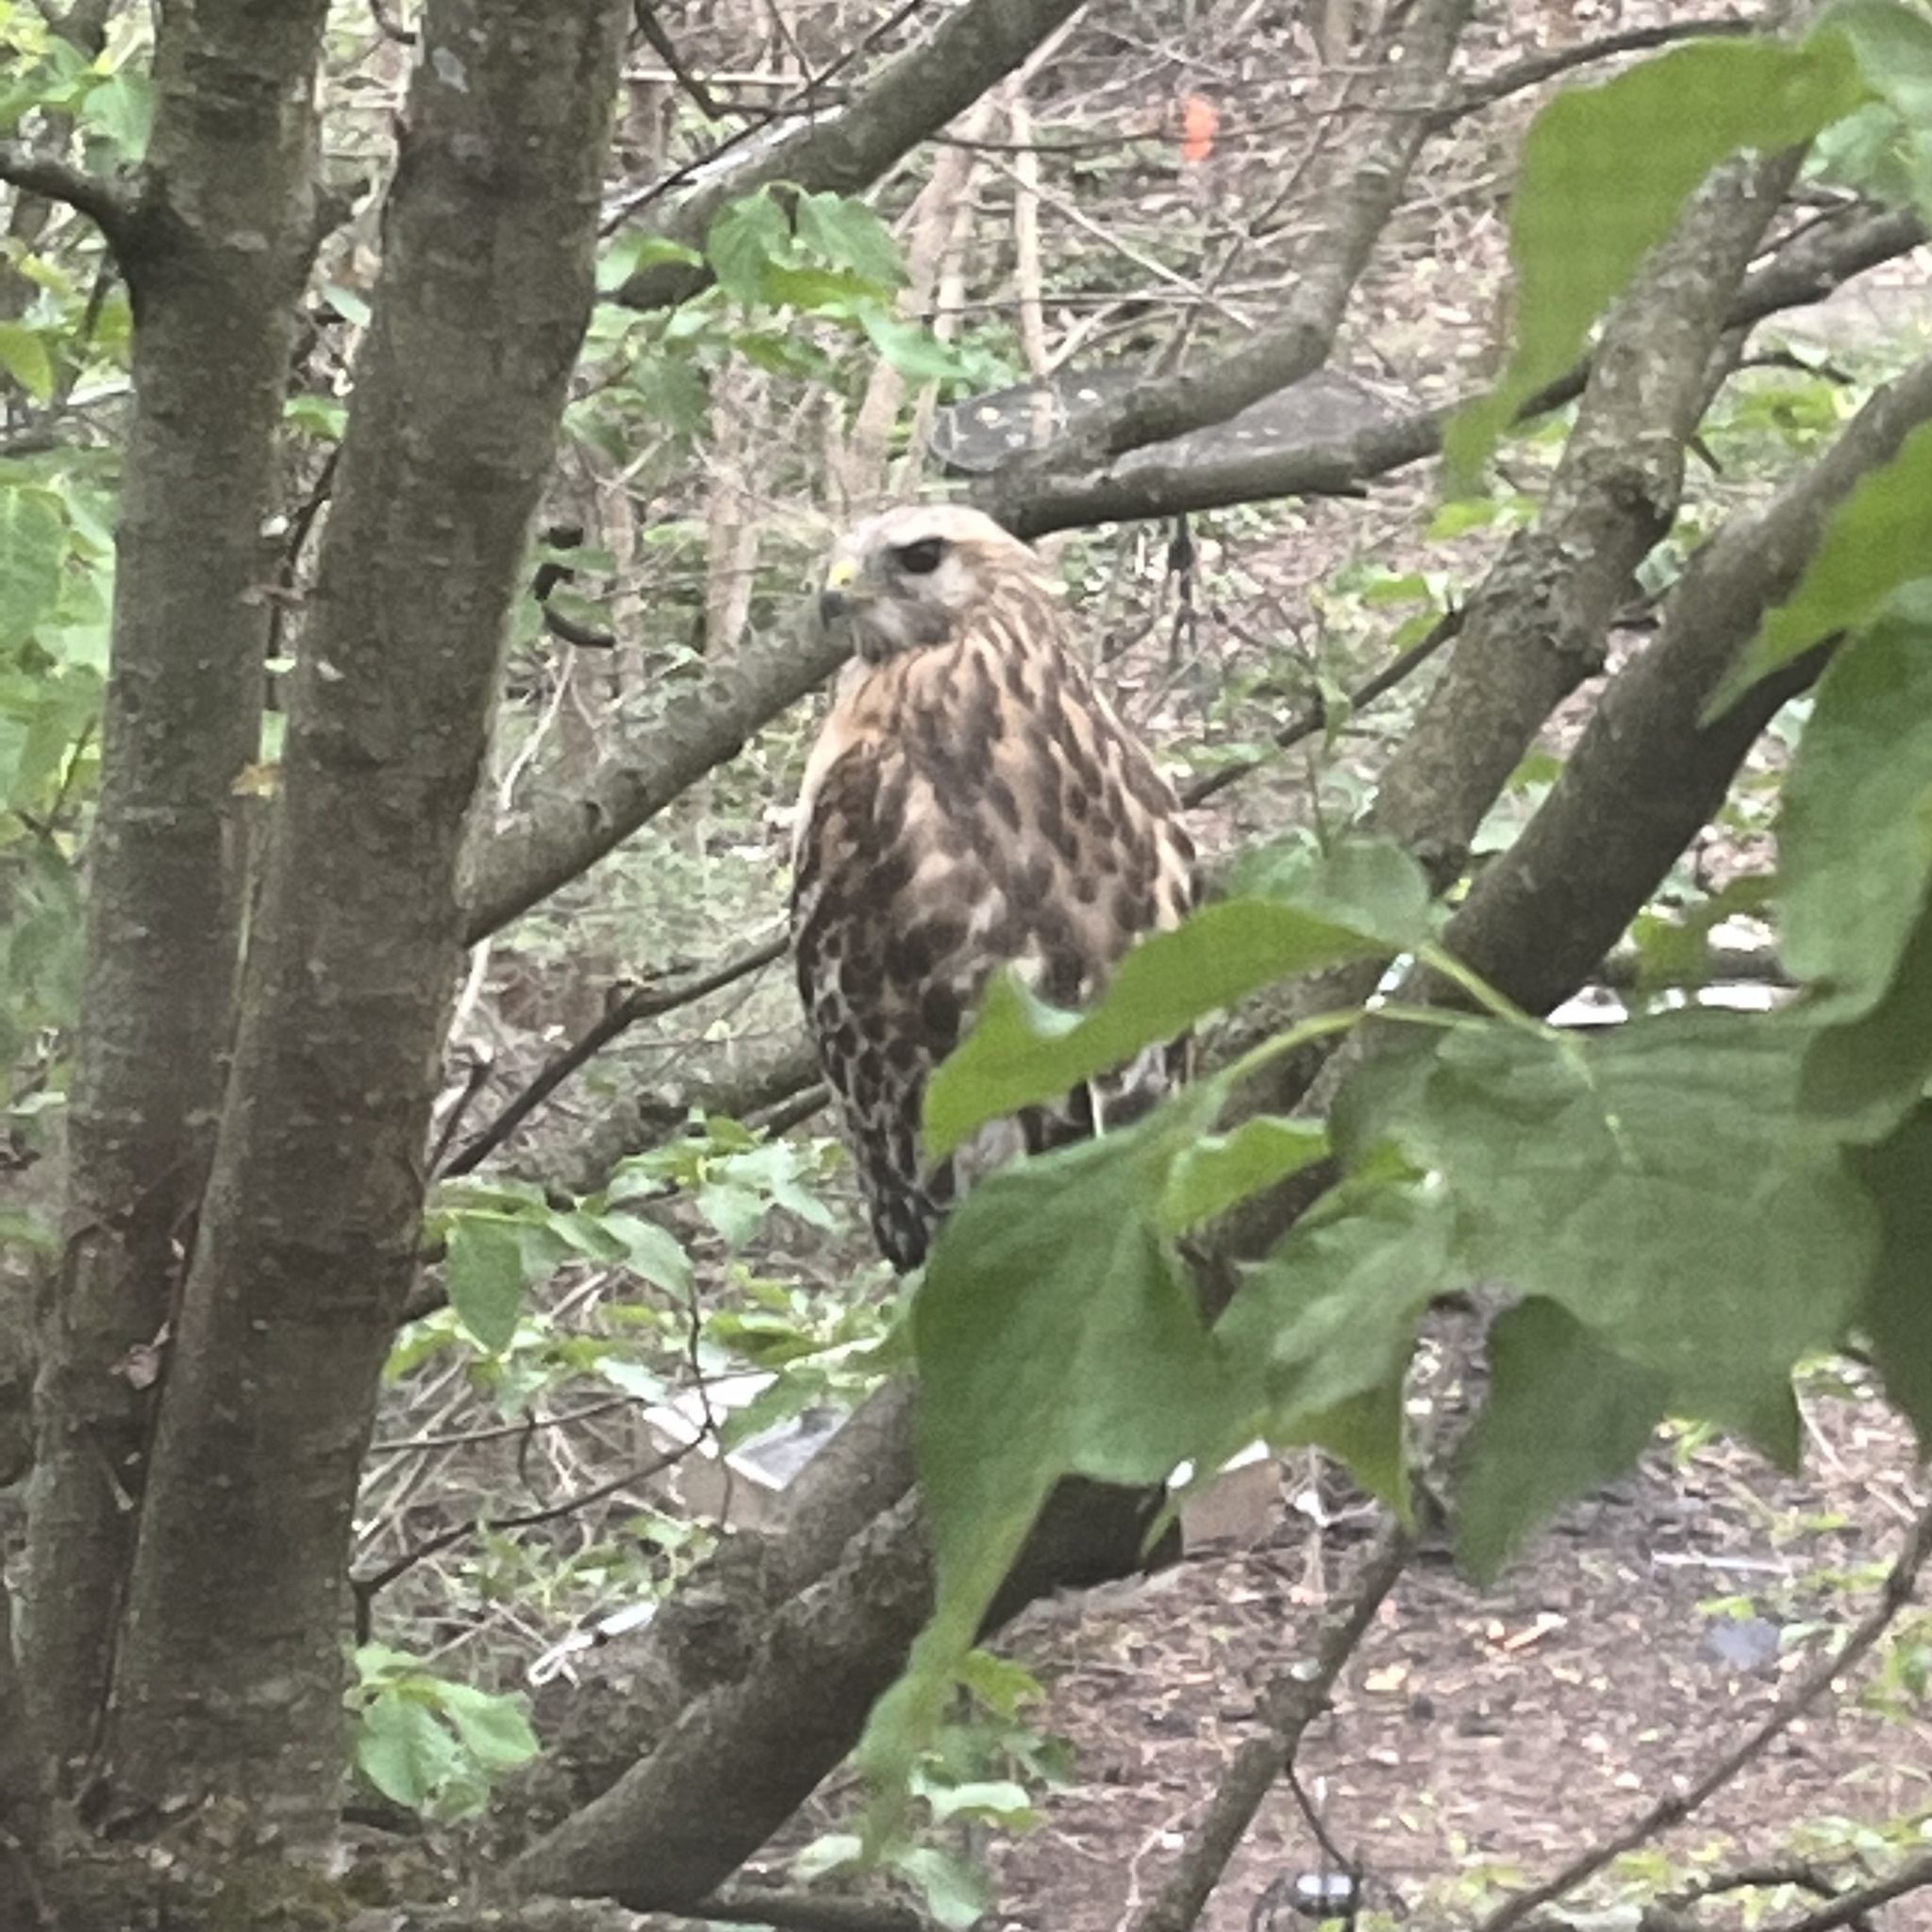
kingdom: Animalia
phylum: Chordata
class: Aves
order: Accipitriformes
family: Accipitridae
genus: Buteo
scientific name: Buteo lineatus
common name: Red-shouldered hawk
